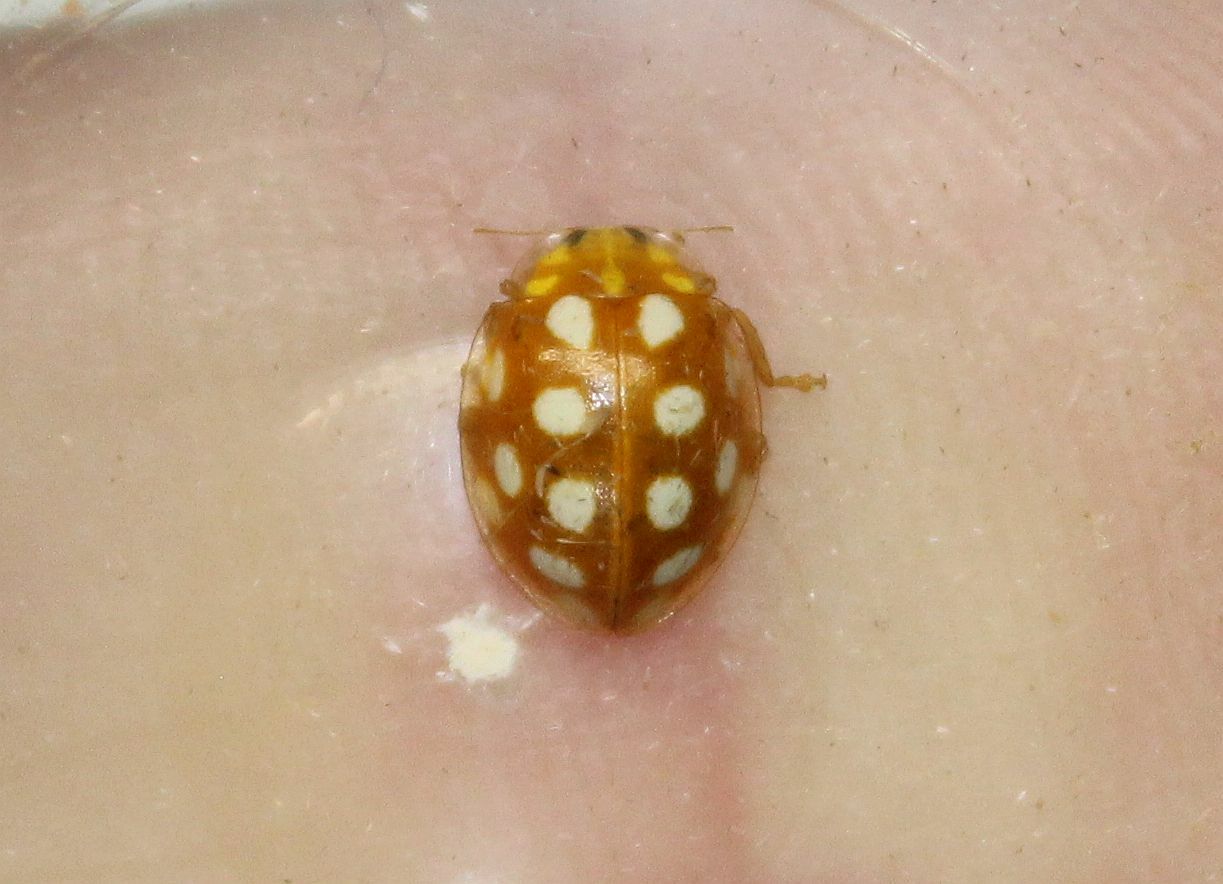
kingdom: Animalia
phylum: Arthropoda
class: Insecta
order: Coleoptera
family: Coccinellidae
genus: Halyzia
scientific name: Halyzia sedecimguttata
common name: Orange ladybird
